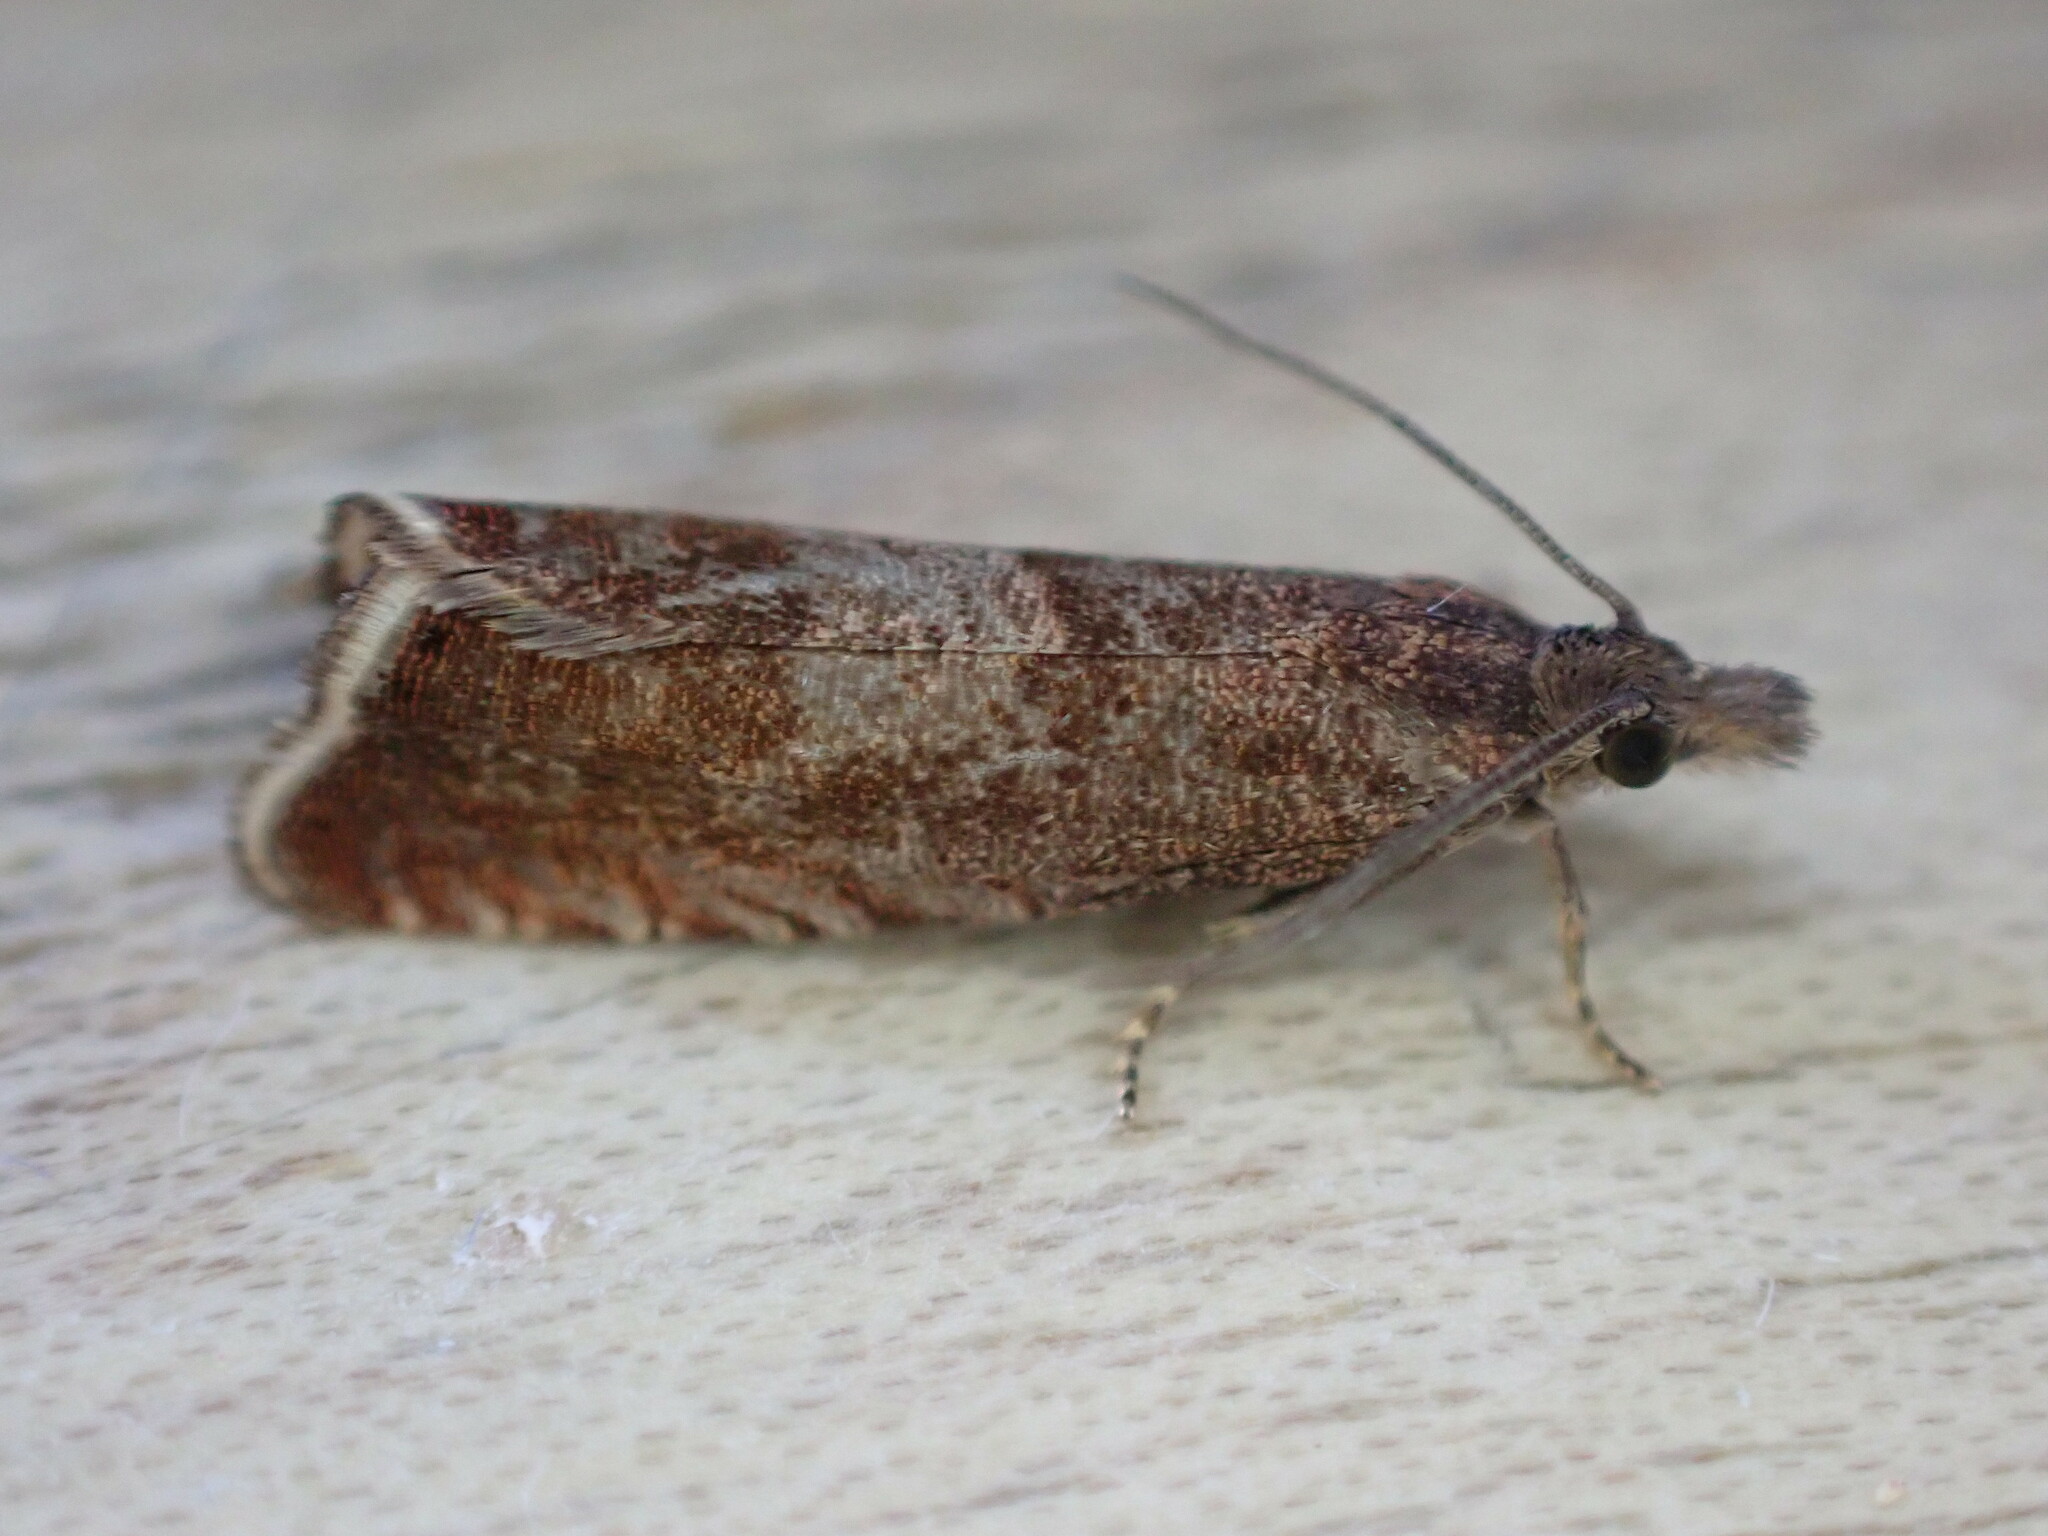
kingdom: Animalia
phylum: Arthropoda
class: Insecta
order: Lepidoptera
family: Tortricidae
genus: Dichrorampha
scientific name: Dichrorampha acuminatana
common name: Sharp-winged drill
